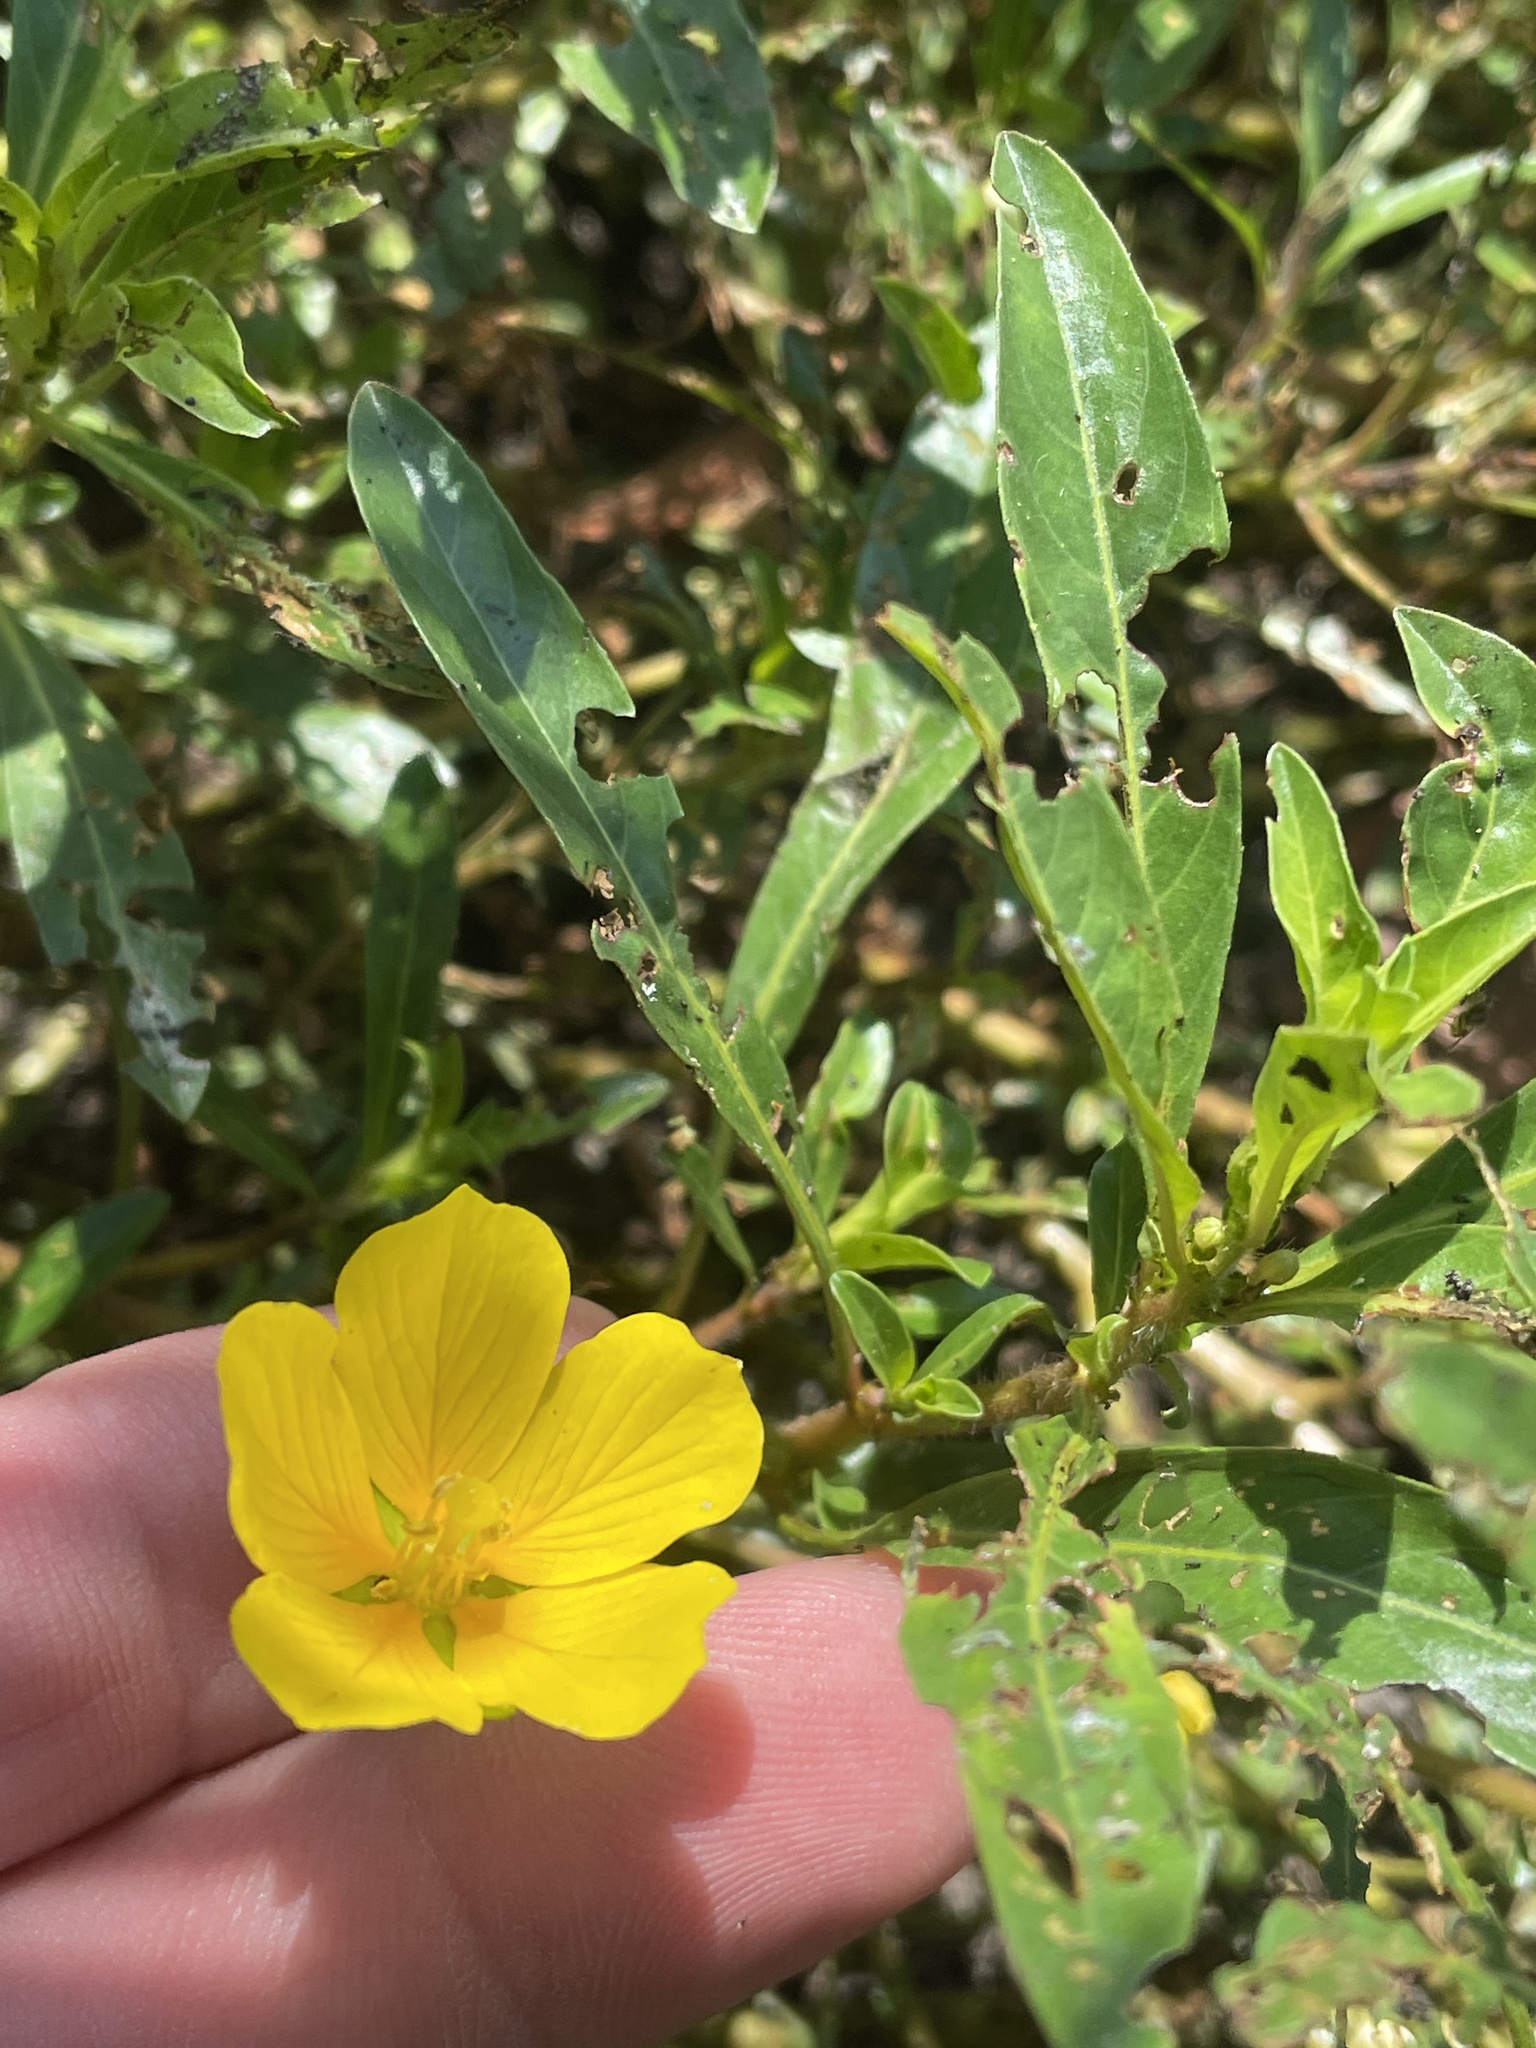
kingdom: Plantae
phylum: Tracheophyta
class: Magnoliopsida
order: Myrtales
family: Onagraceae
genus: Ludwigia
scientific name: Ludwigia peploides
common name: Floating primrose-willow
